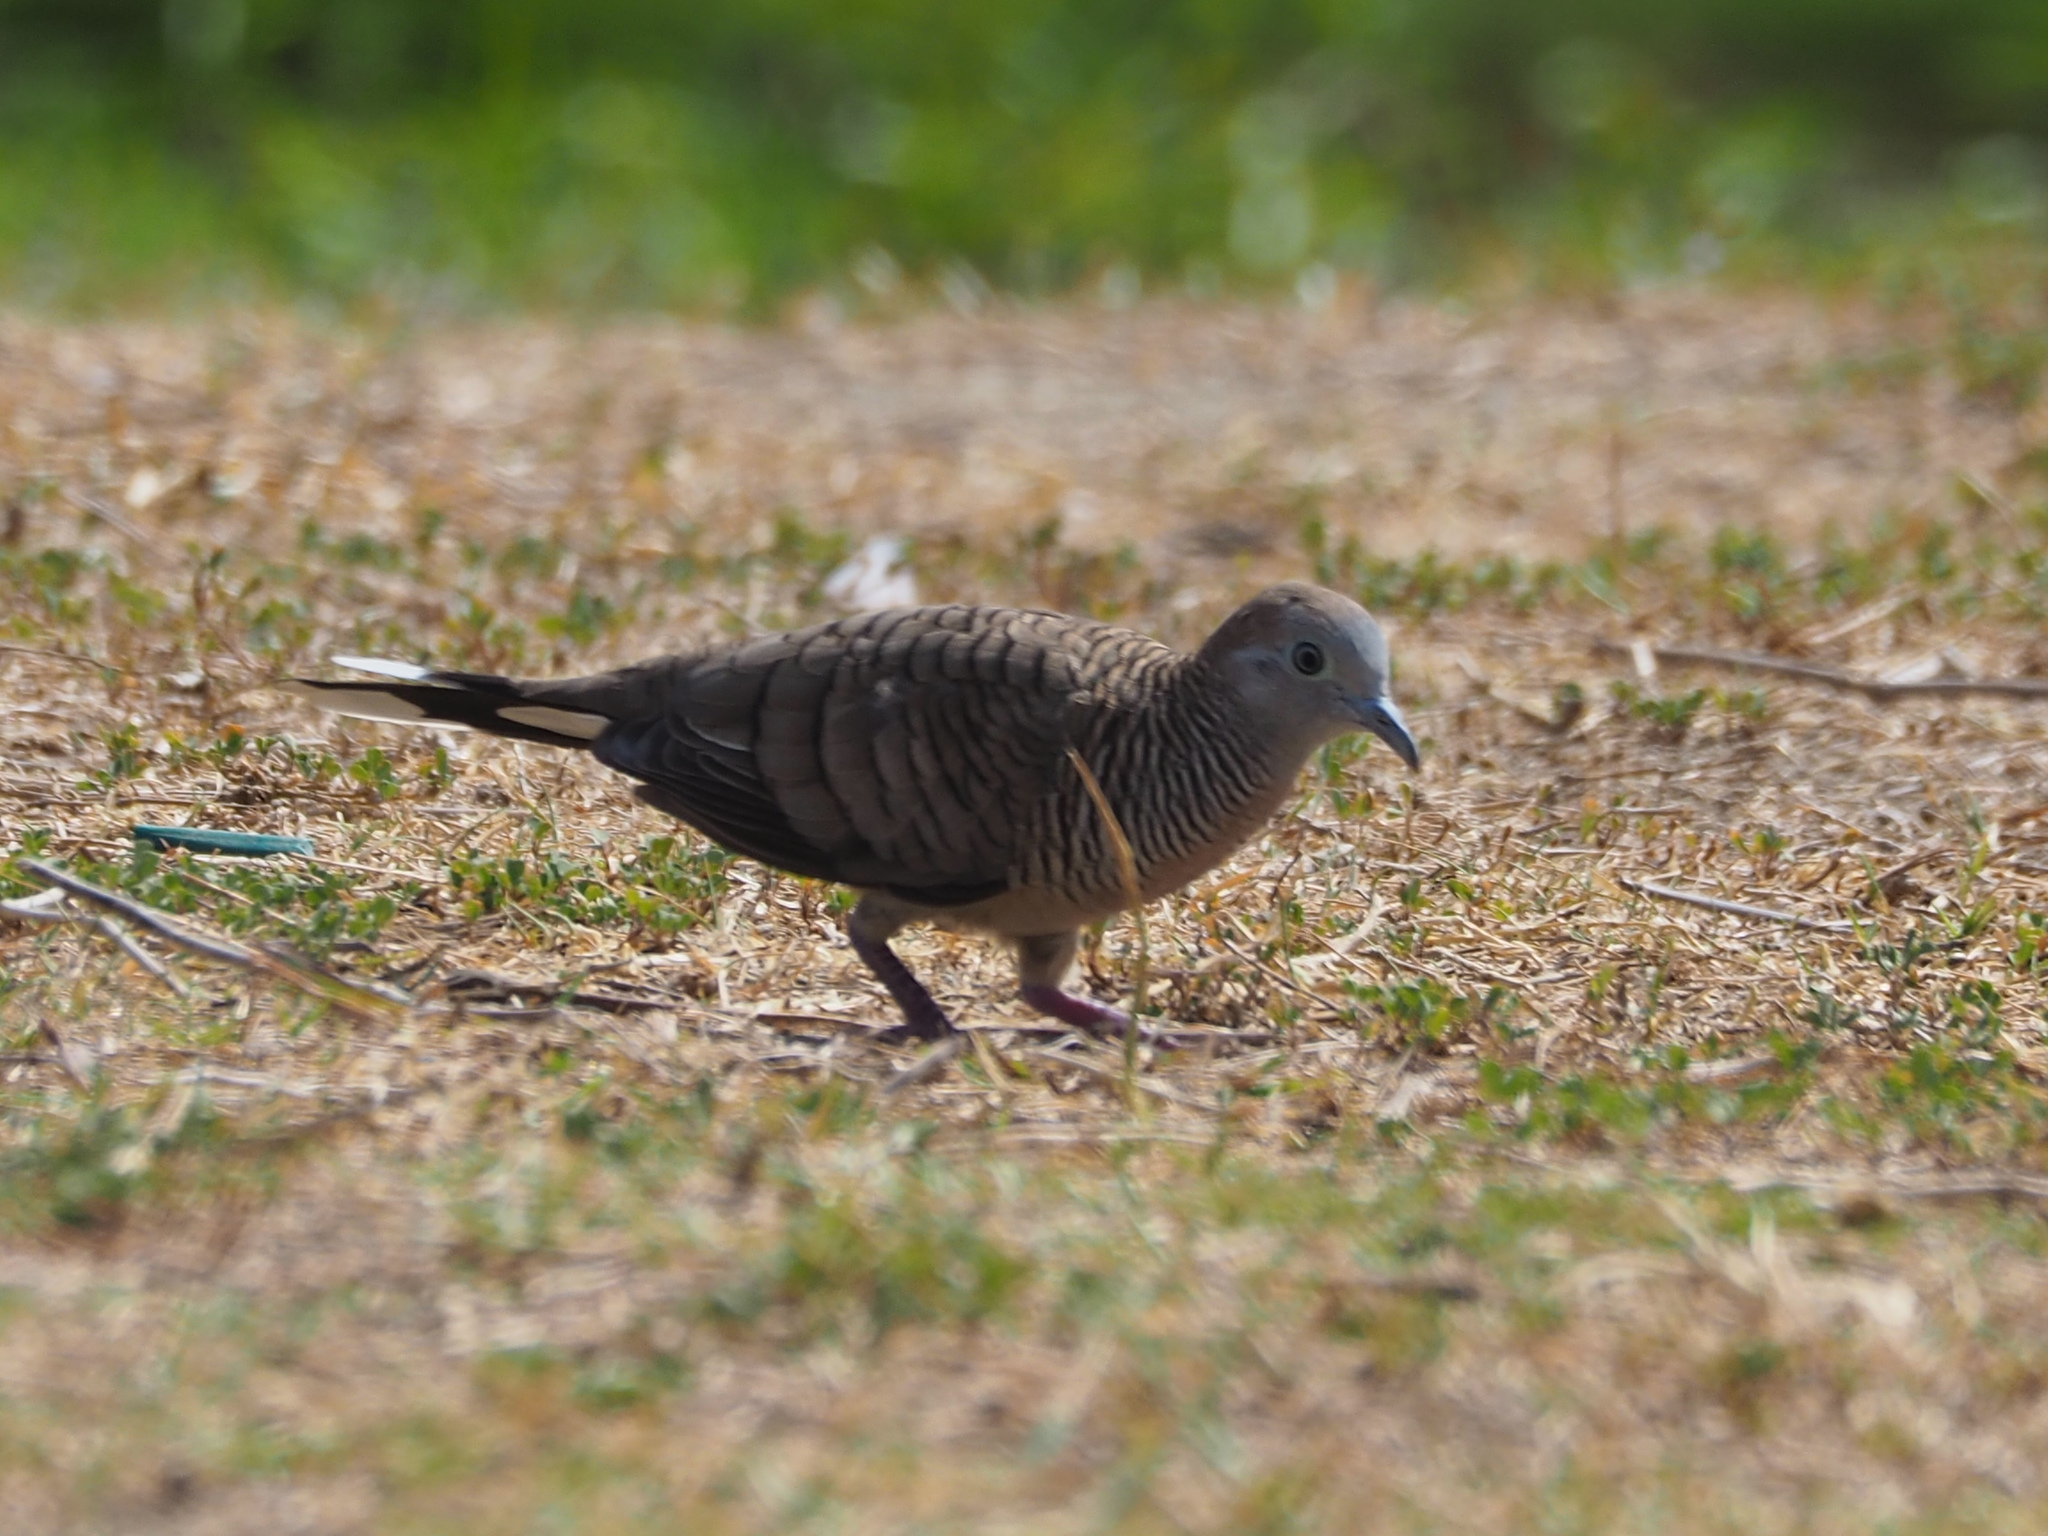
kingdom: Animalia
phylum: Chordata
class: Aves
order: Columbiformes
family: Columbidae
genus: Geopelia
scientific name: Geopelia striata
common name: Zebra dove
